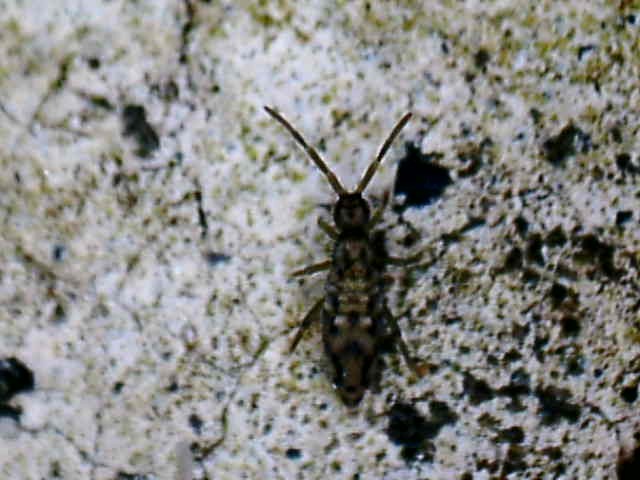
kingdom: Animalia
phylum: Arthropoda
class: Collembola
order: Entomobryomorpha
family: Entomobryidae
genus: Entomobrya
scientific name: Entomobrya intermedia
